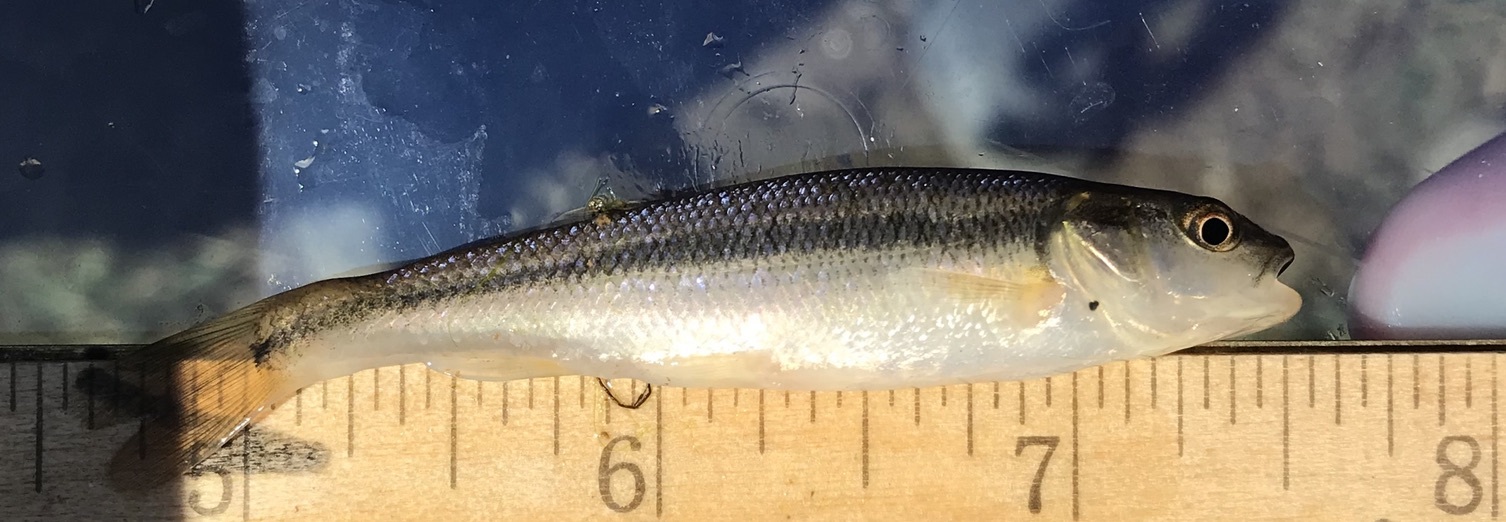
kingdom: Animalia
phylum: Chordata
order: Cypriniformes
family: Cyprinidae
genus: Semotilus
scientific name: Semotilus atromaculatus
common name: Creek chub
